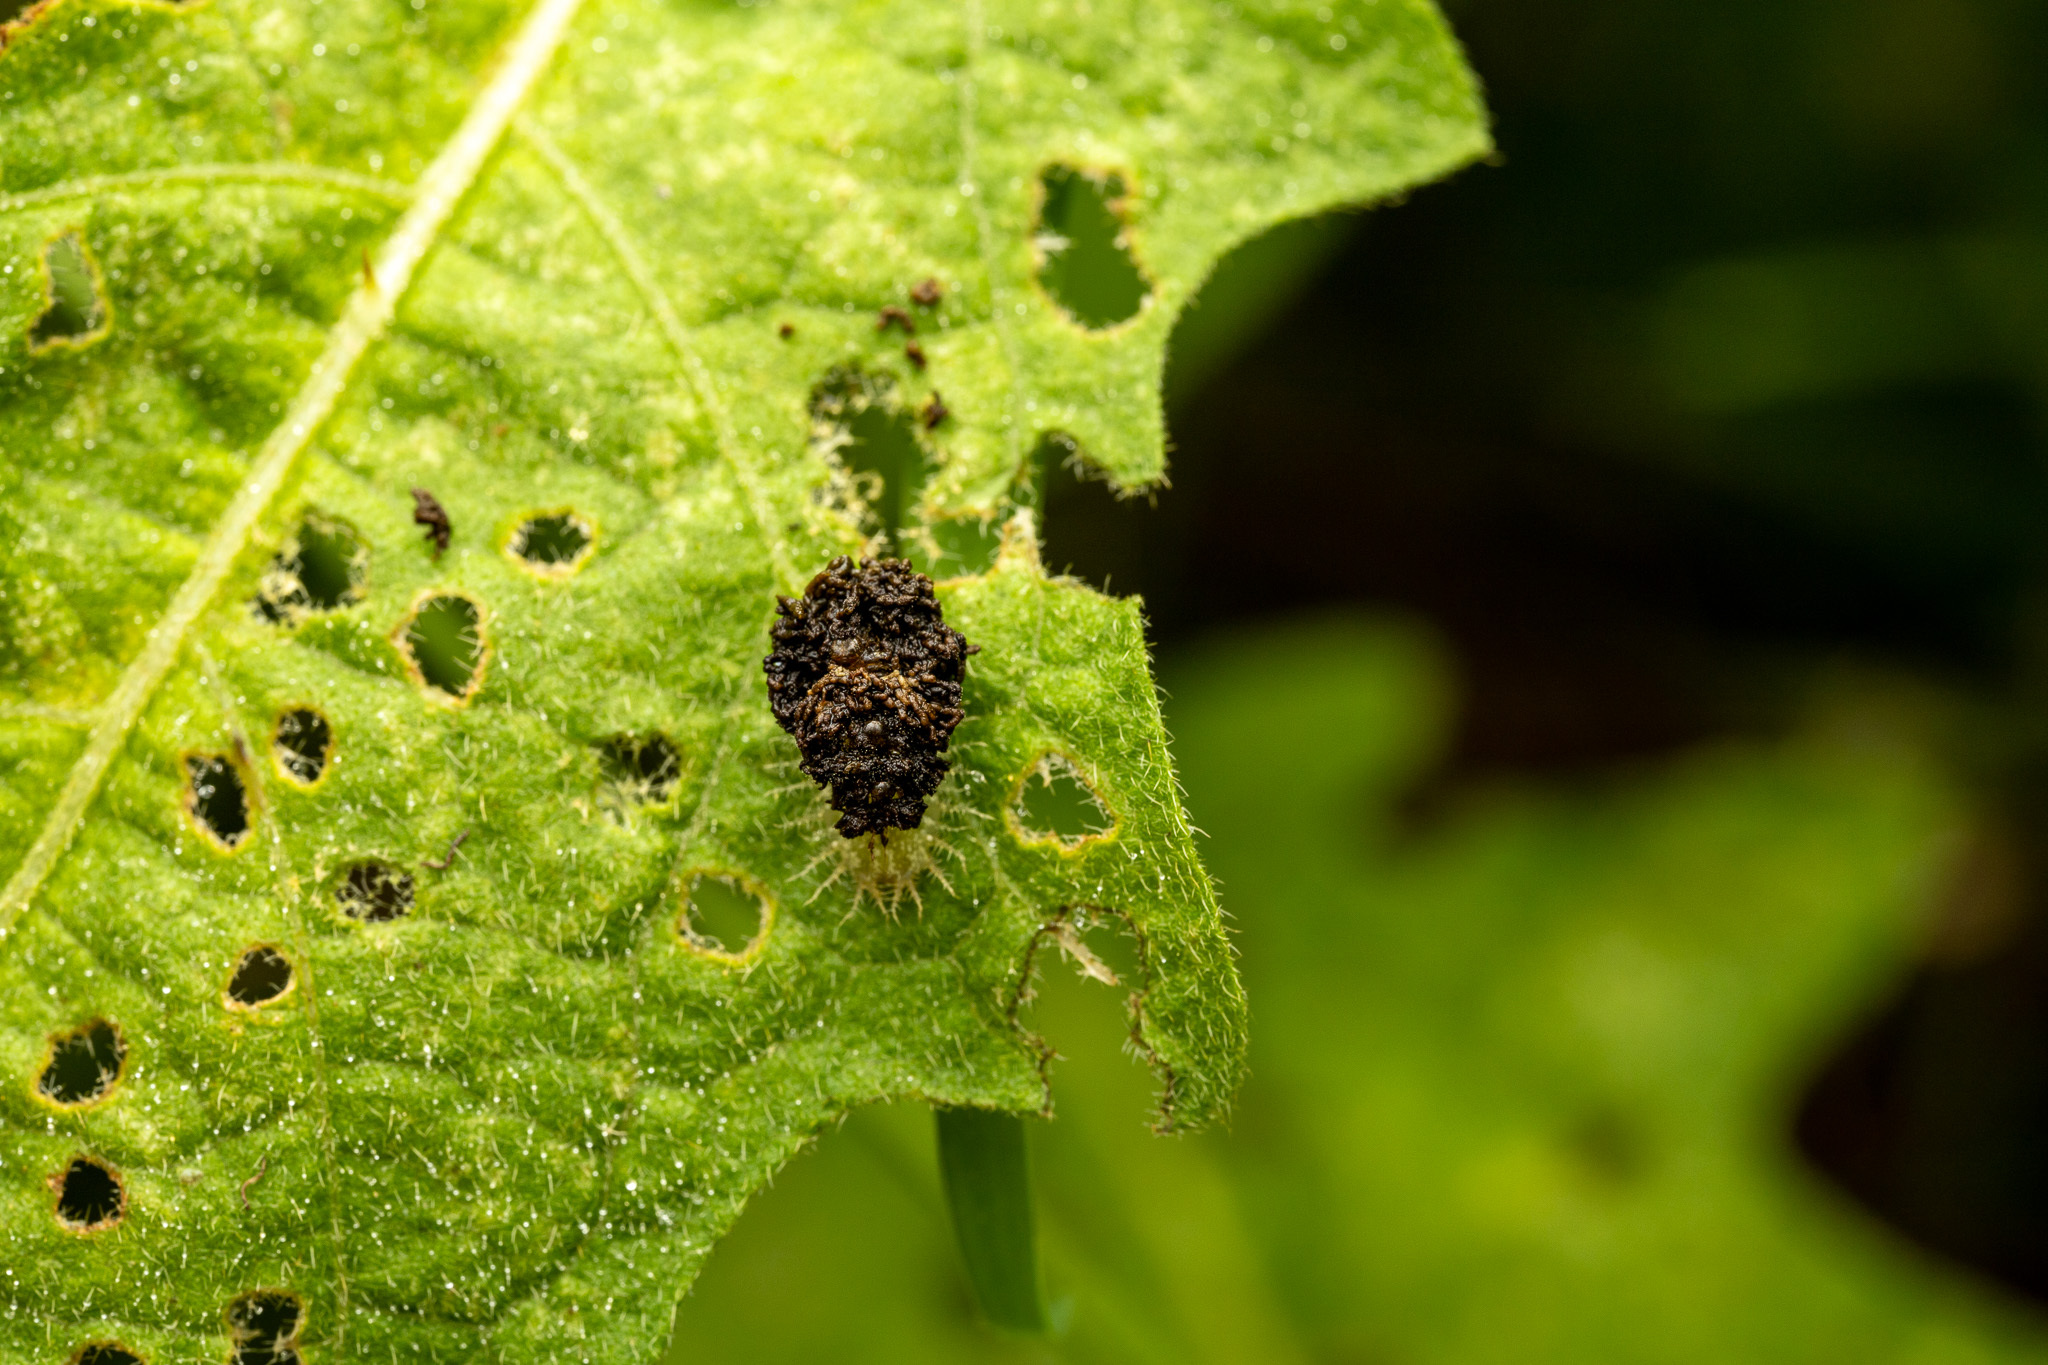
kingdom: Animalia
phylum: Arthropoda
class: Insecta
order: Coleoptera
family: Chrysomelidae
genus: Gratiana
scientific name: Gratiana pallidula
